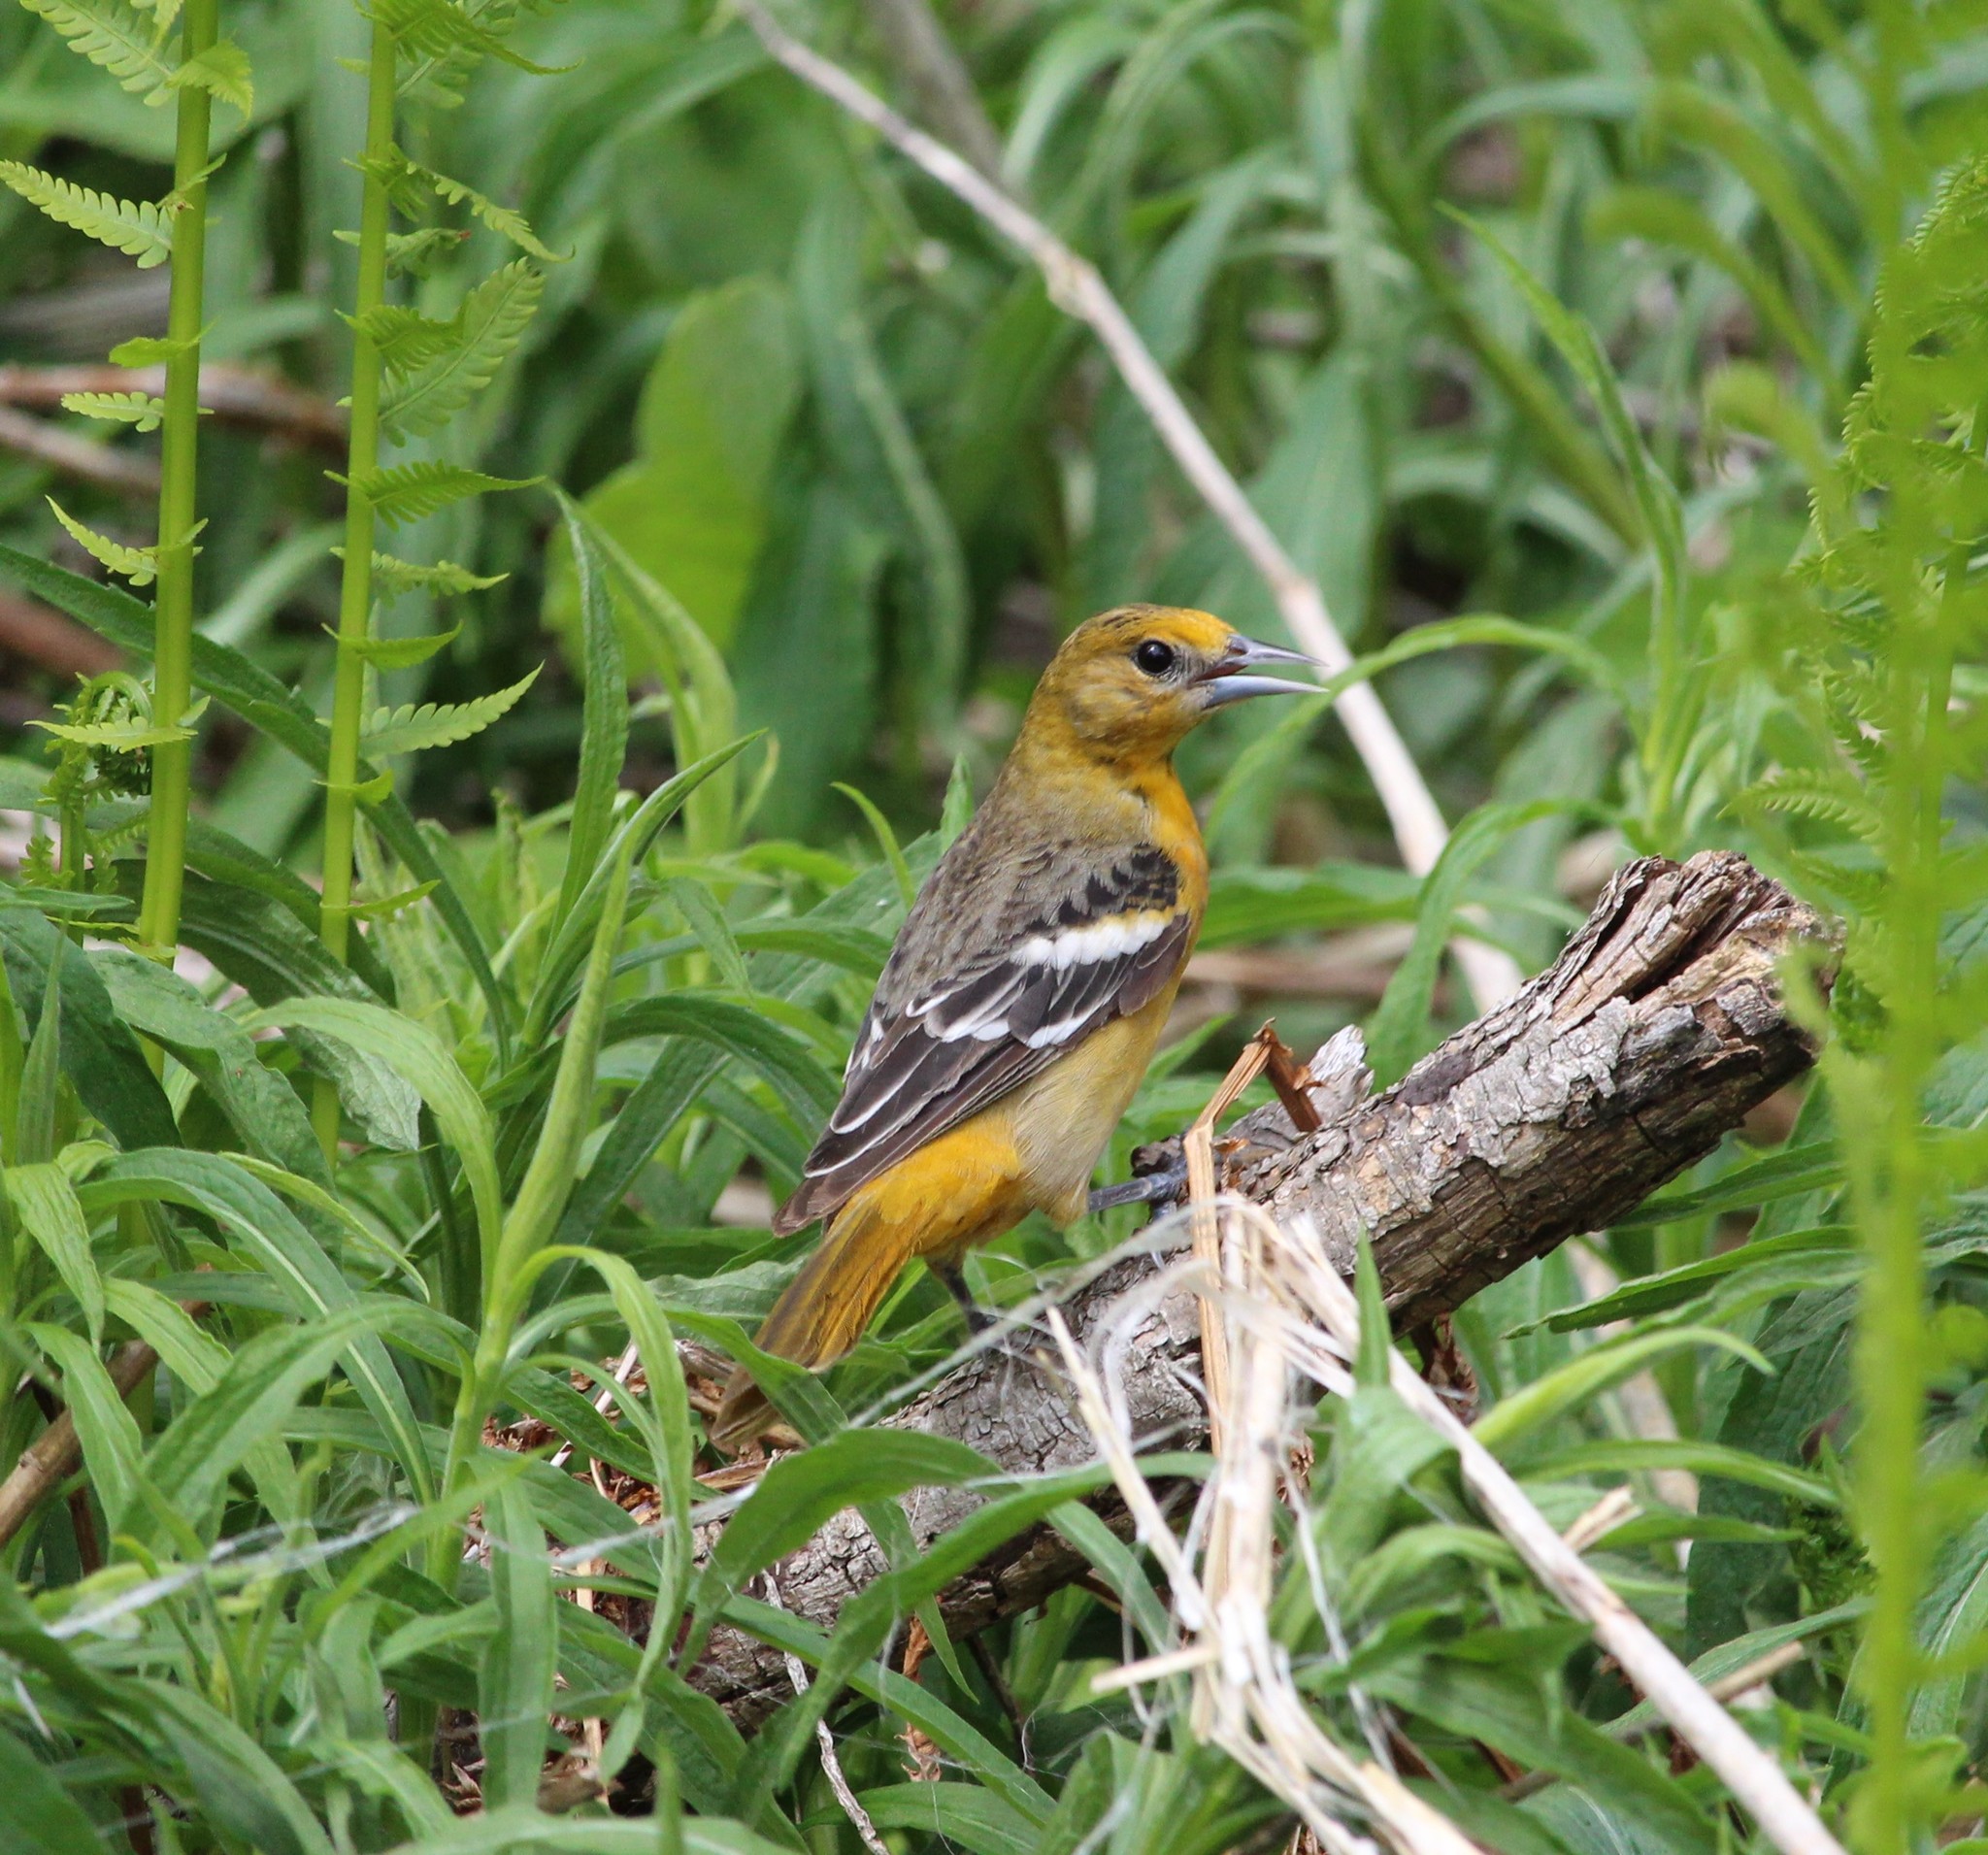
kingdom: Animalia
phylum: Chordata
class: Aves
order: Passeriformes
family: Icteridae
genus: Icterus
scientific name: Icterus galbula
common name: Baltimore oriole
